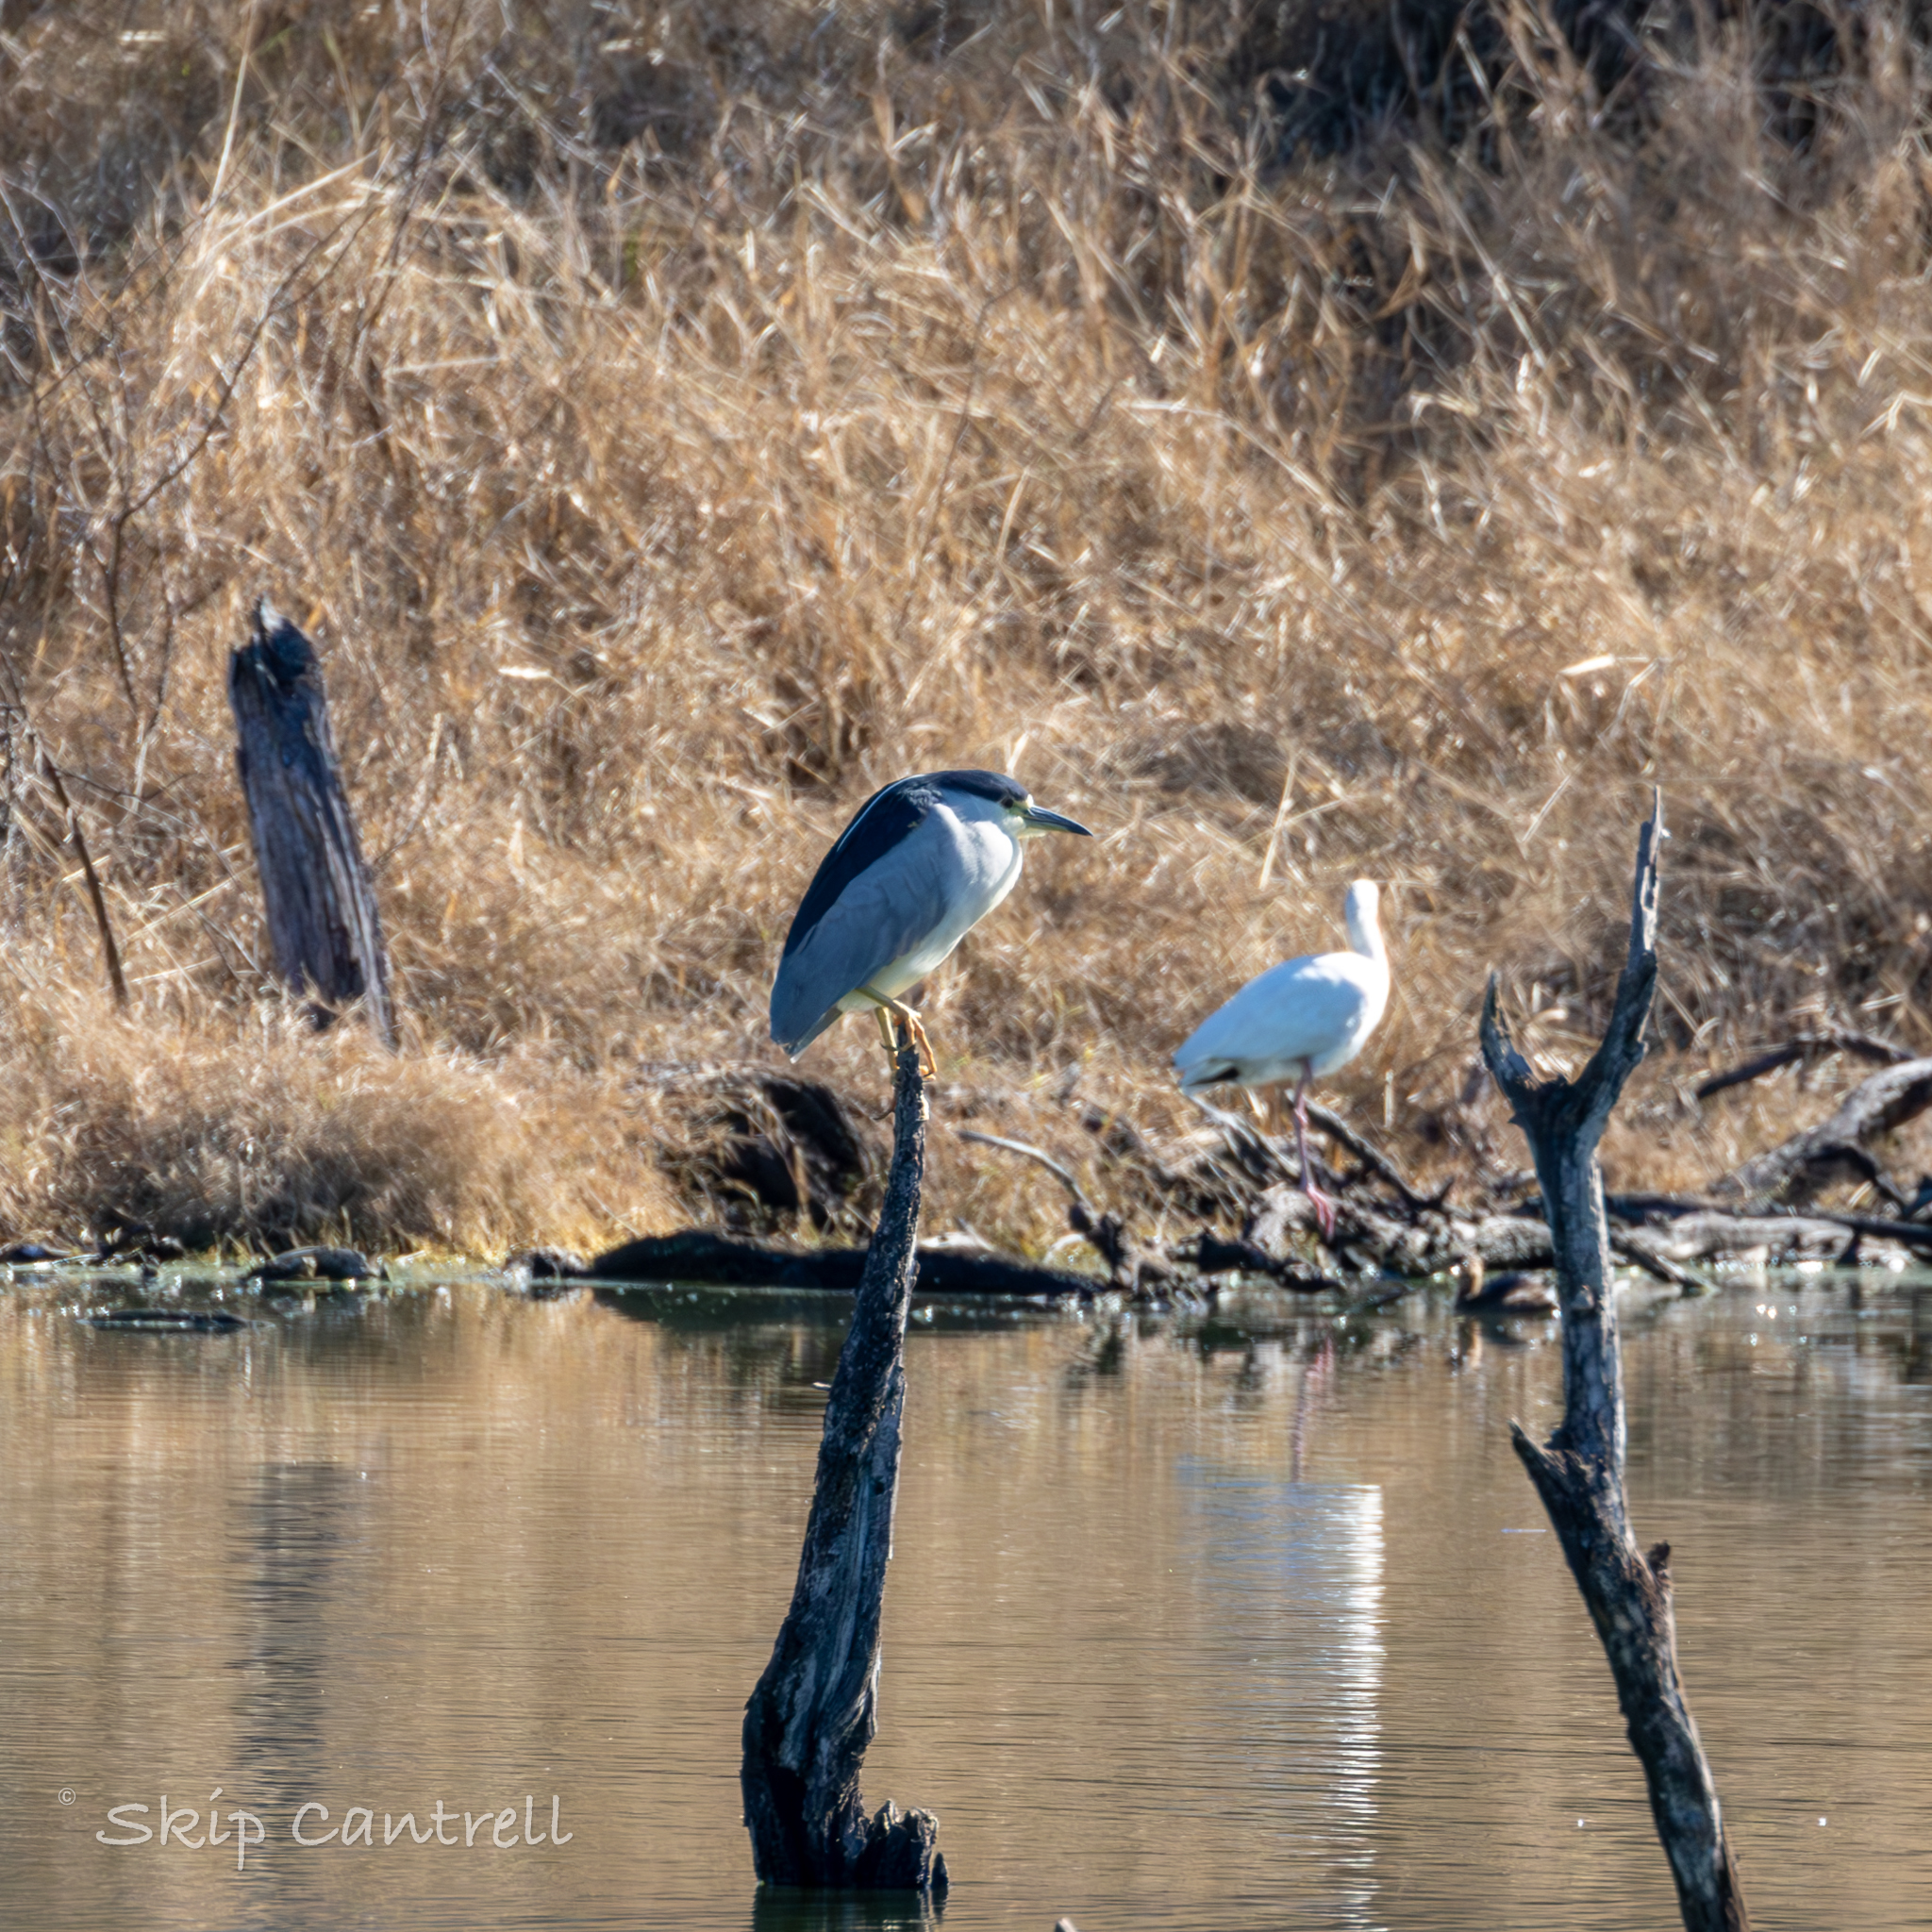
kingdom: Animalia
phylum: Chordata
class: Aves
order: Pelecaniformes
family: Ardeidae
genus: Nycticorax
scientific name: Nycticorax nycticorax
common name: Black-crowned night heron
